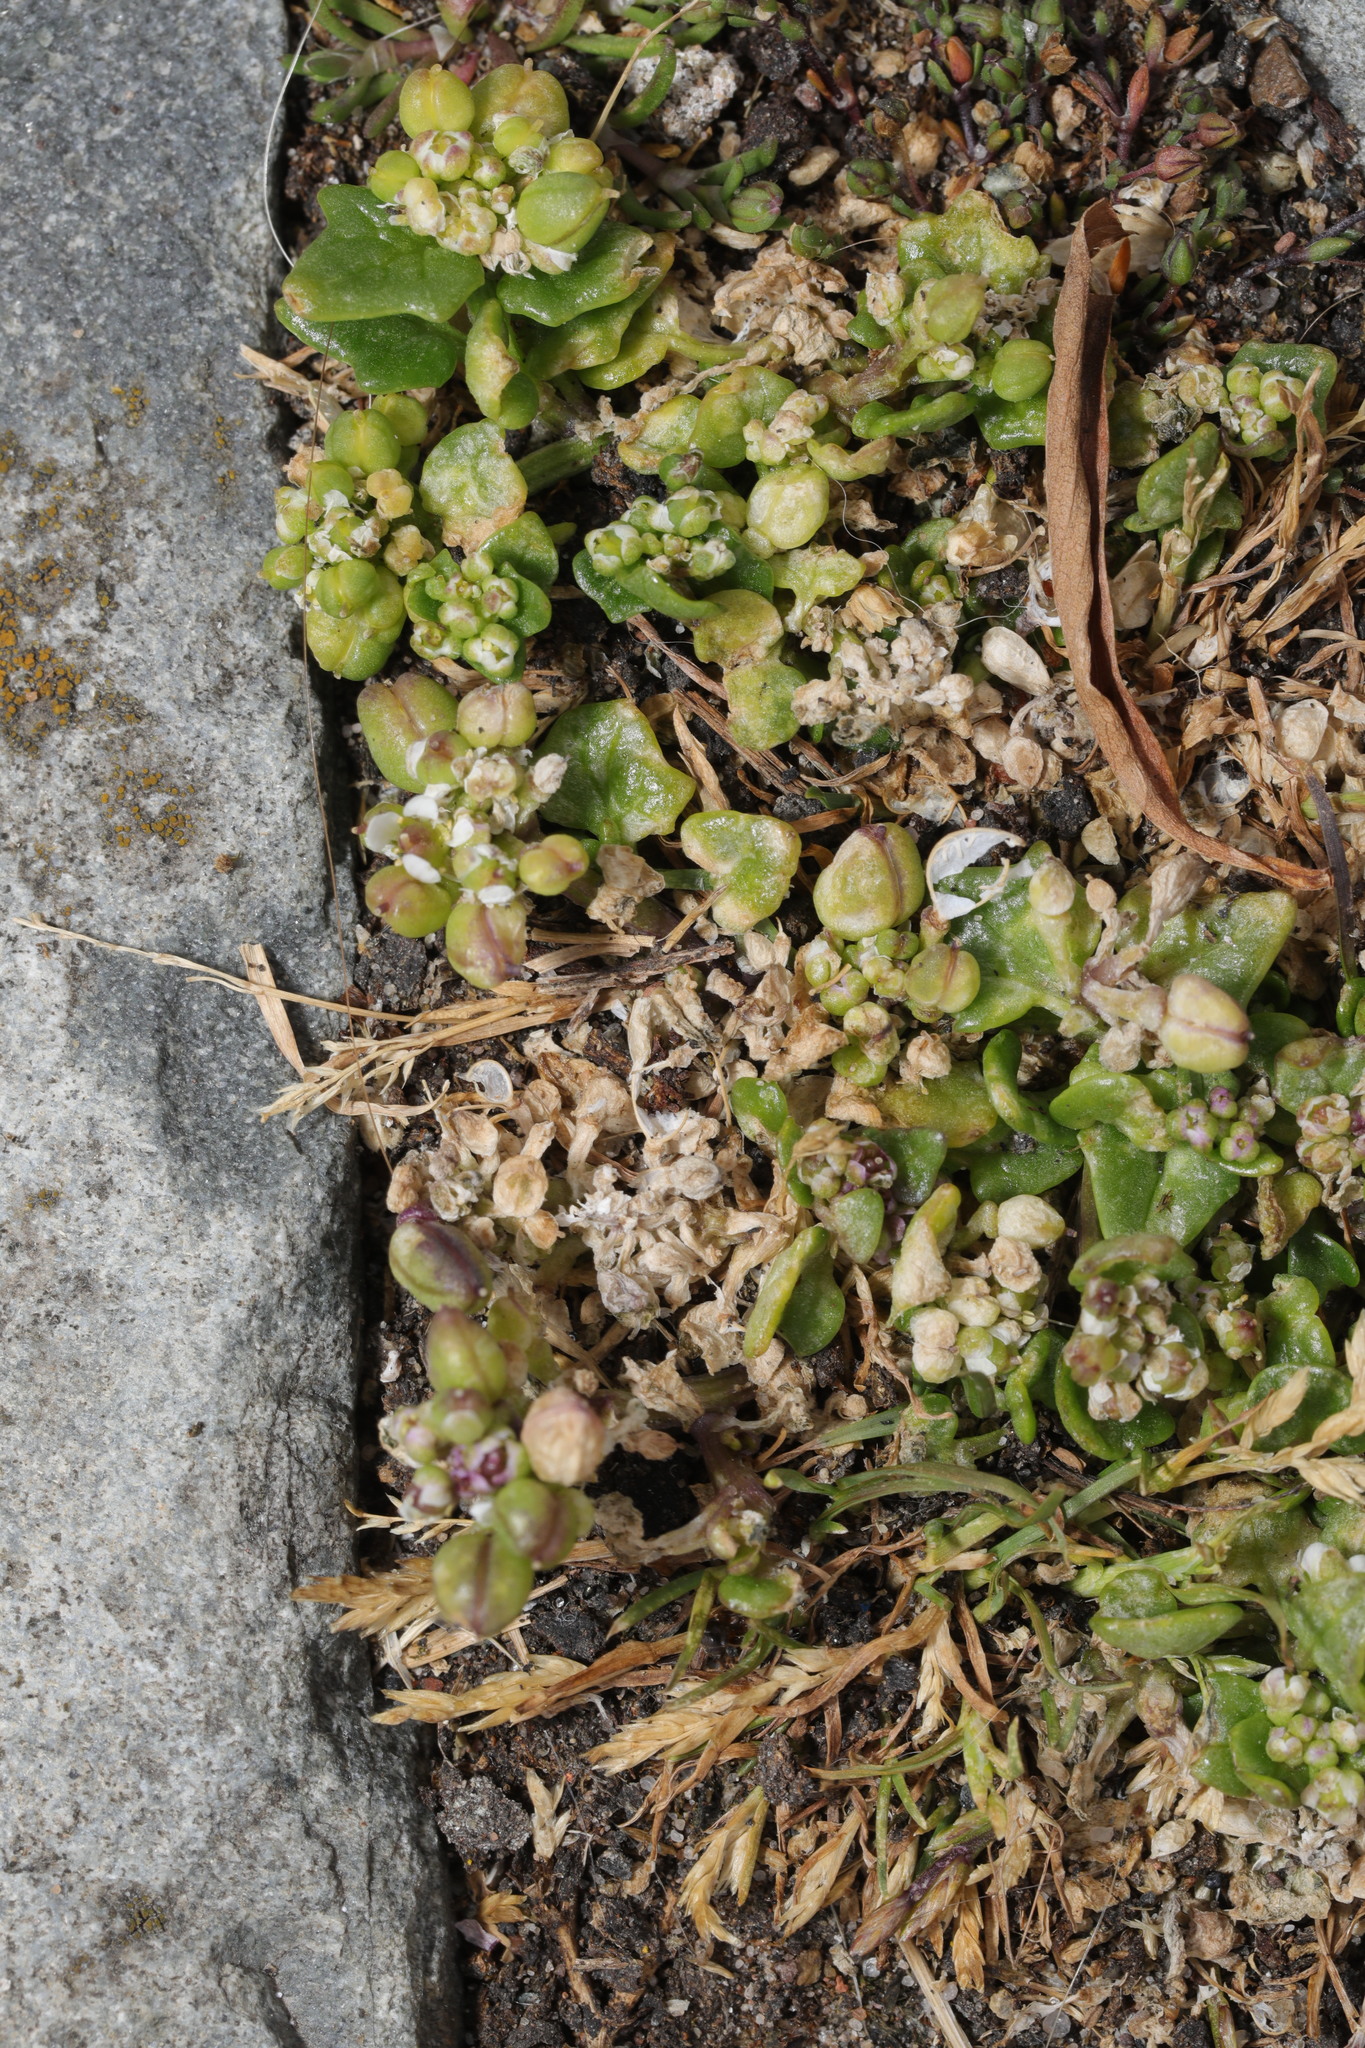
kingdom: Plantae
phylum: Tracheophyta
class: Magnoliopsida
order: Brassicales
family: Brassicaceae
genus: Cochlearia
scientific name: Cochlearia danica
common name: Early scurvygrass
